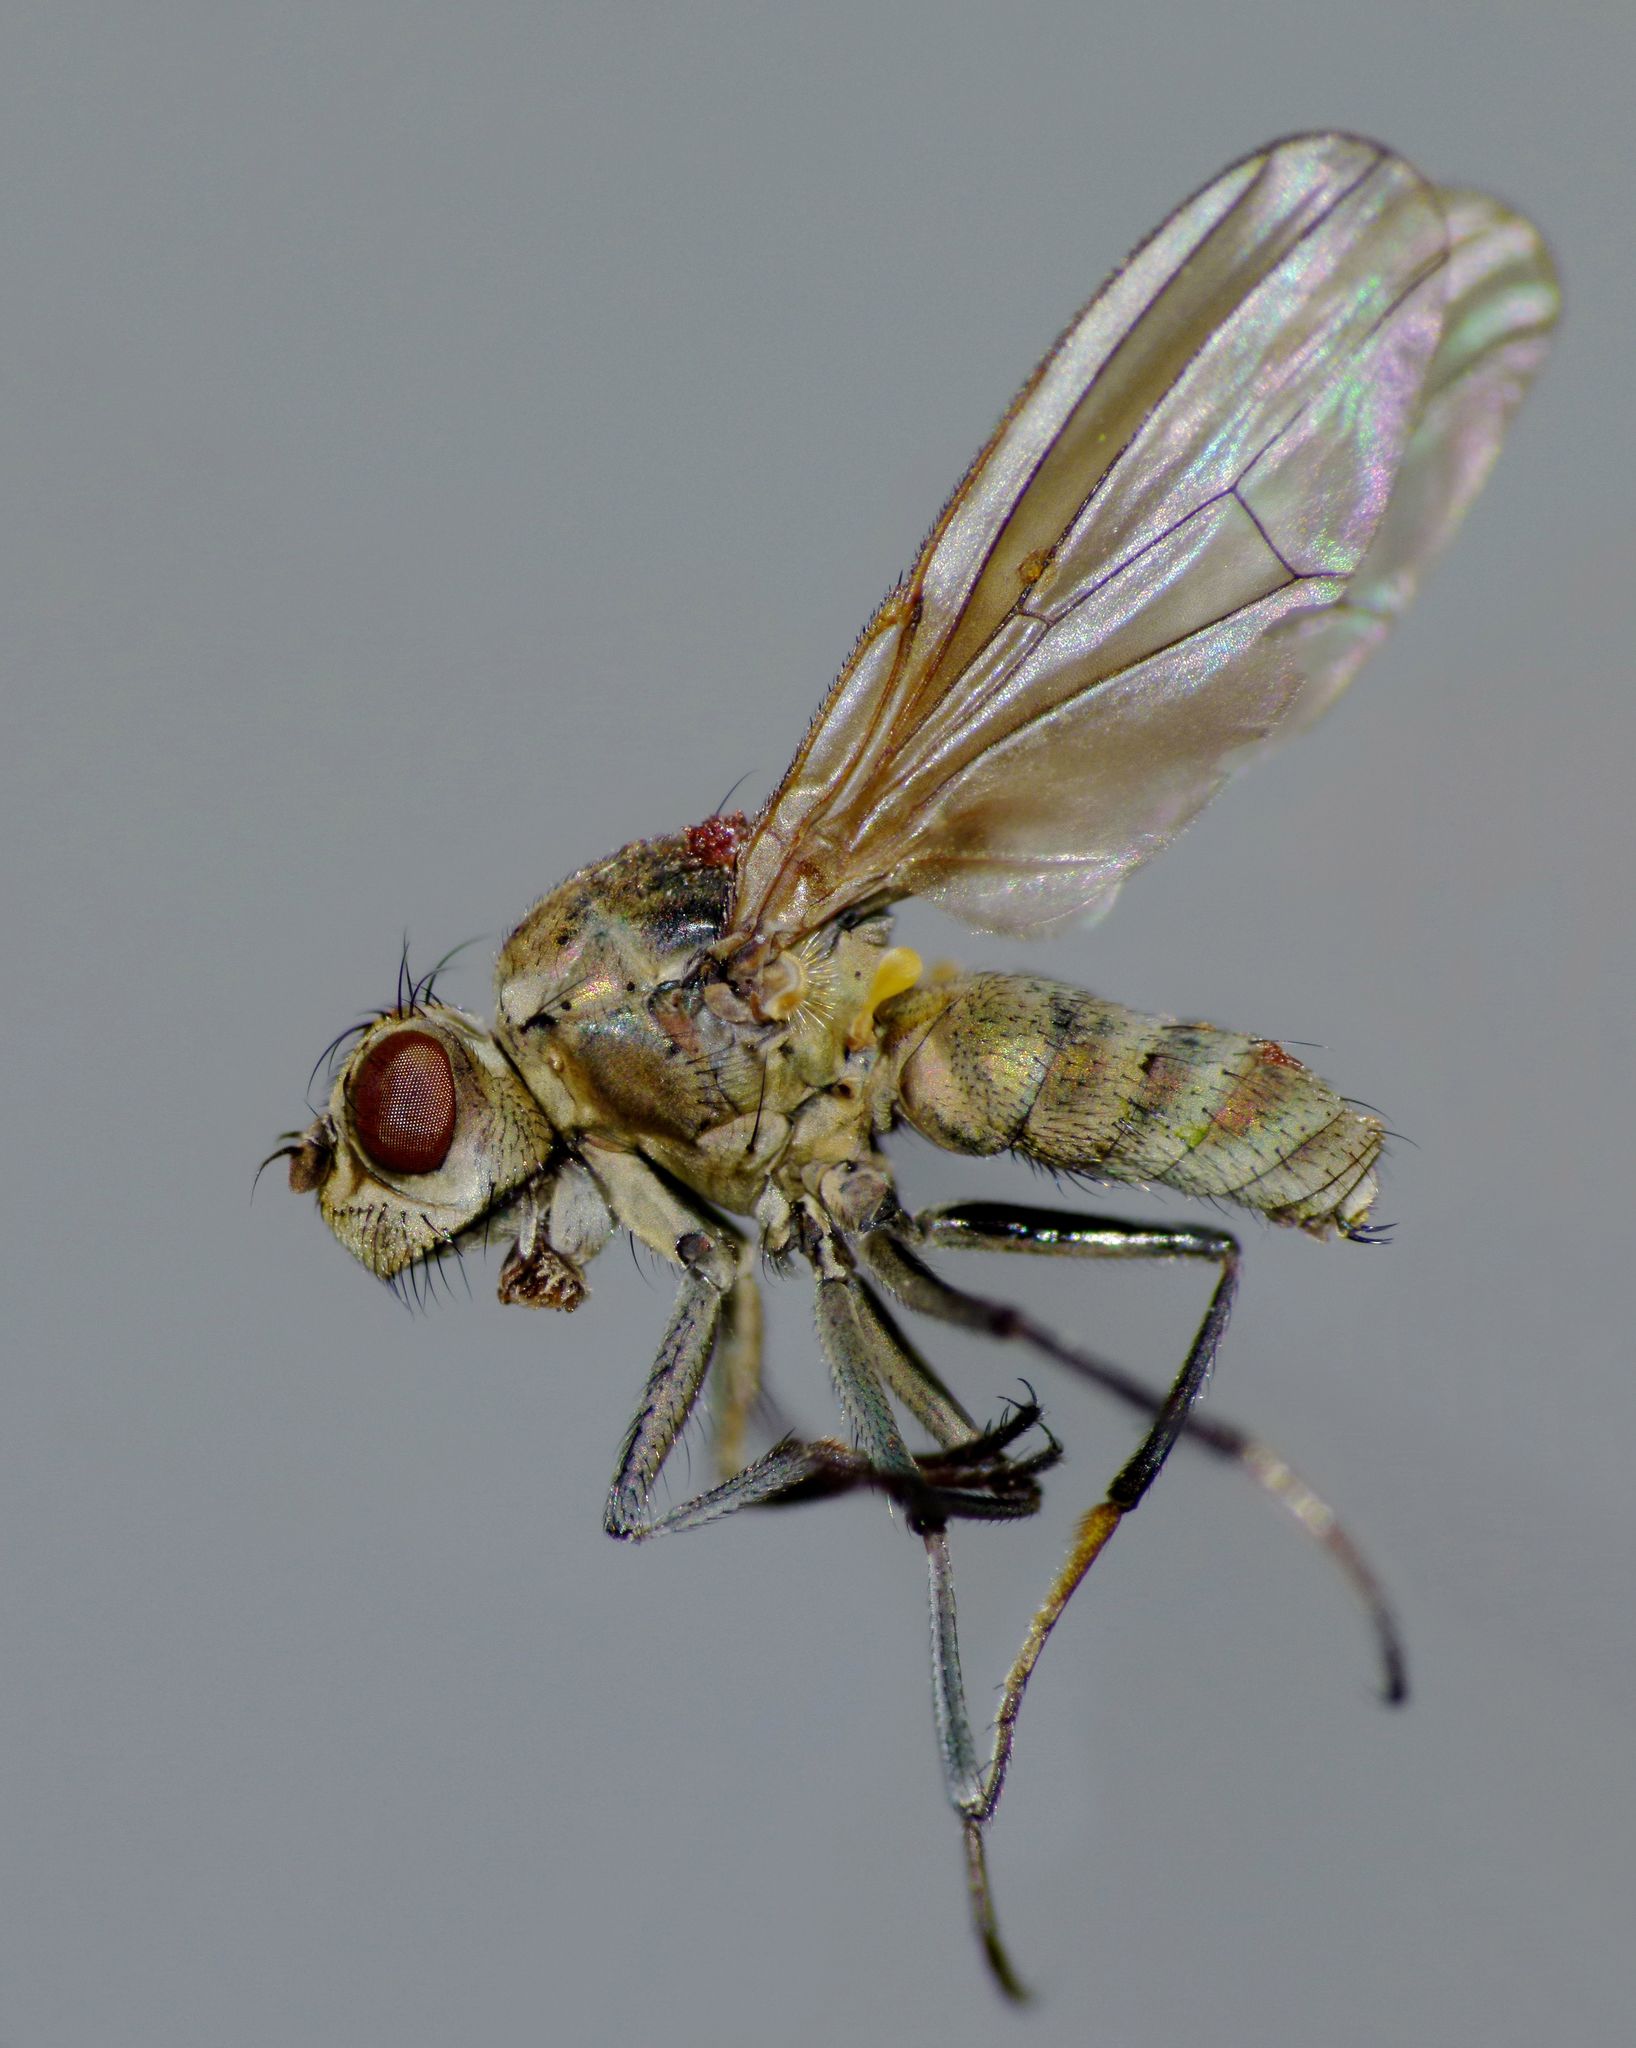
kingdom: Animalia
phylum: Arthropoda
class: Insecta
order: Diptera
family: Ephydridae
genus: Ephydrella
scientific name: Ephydrella assimilis
